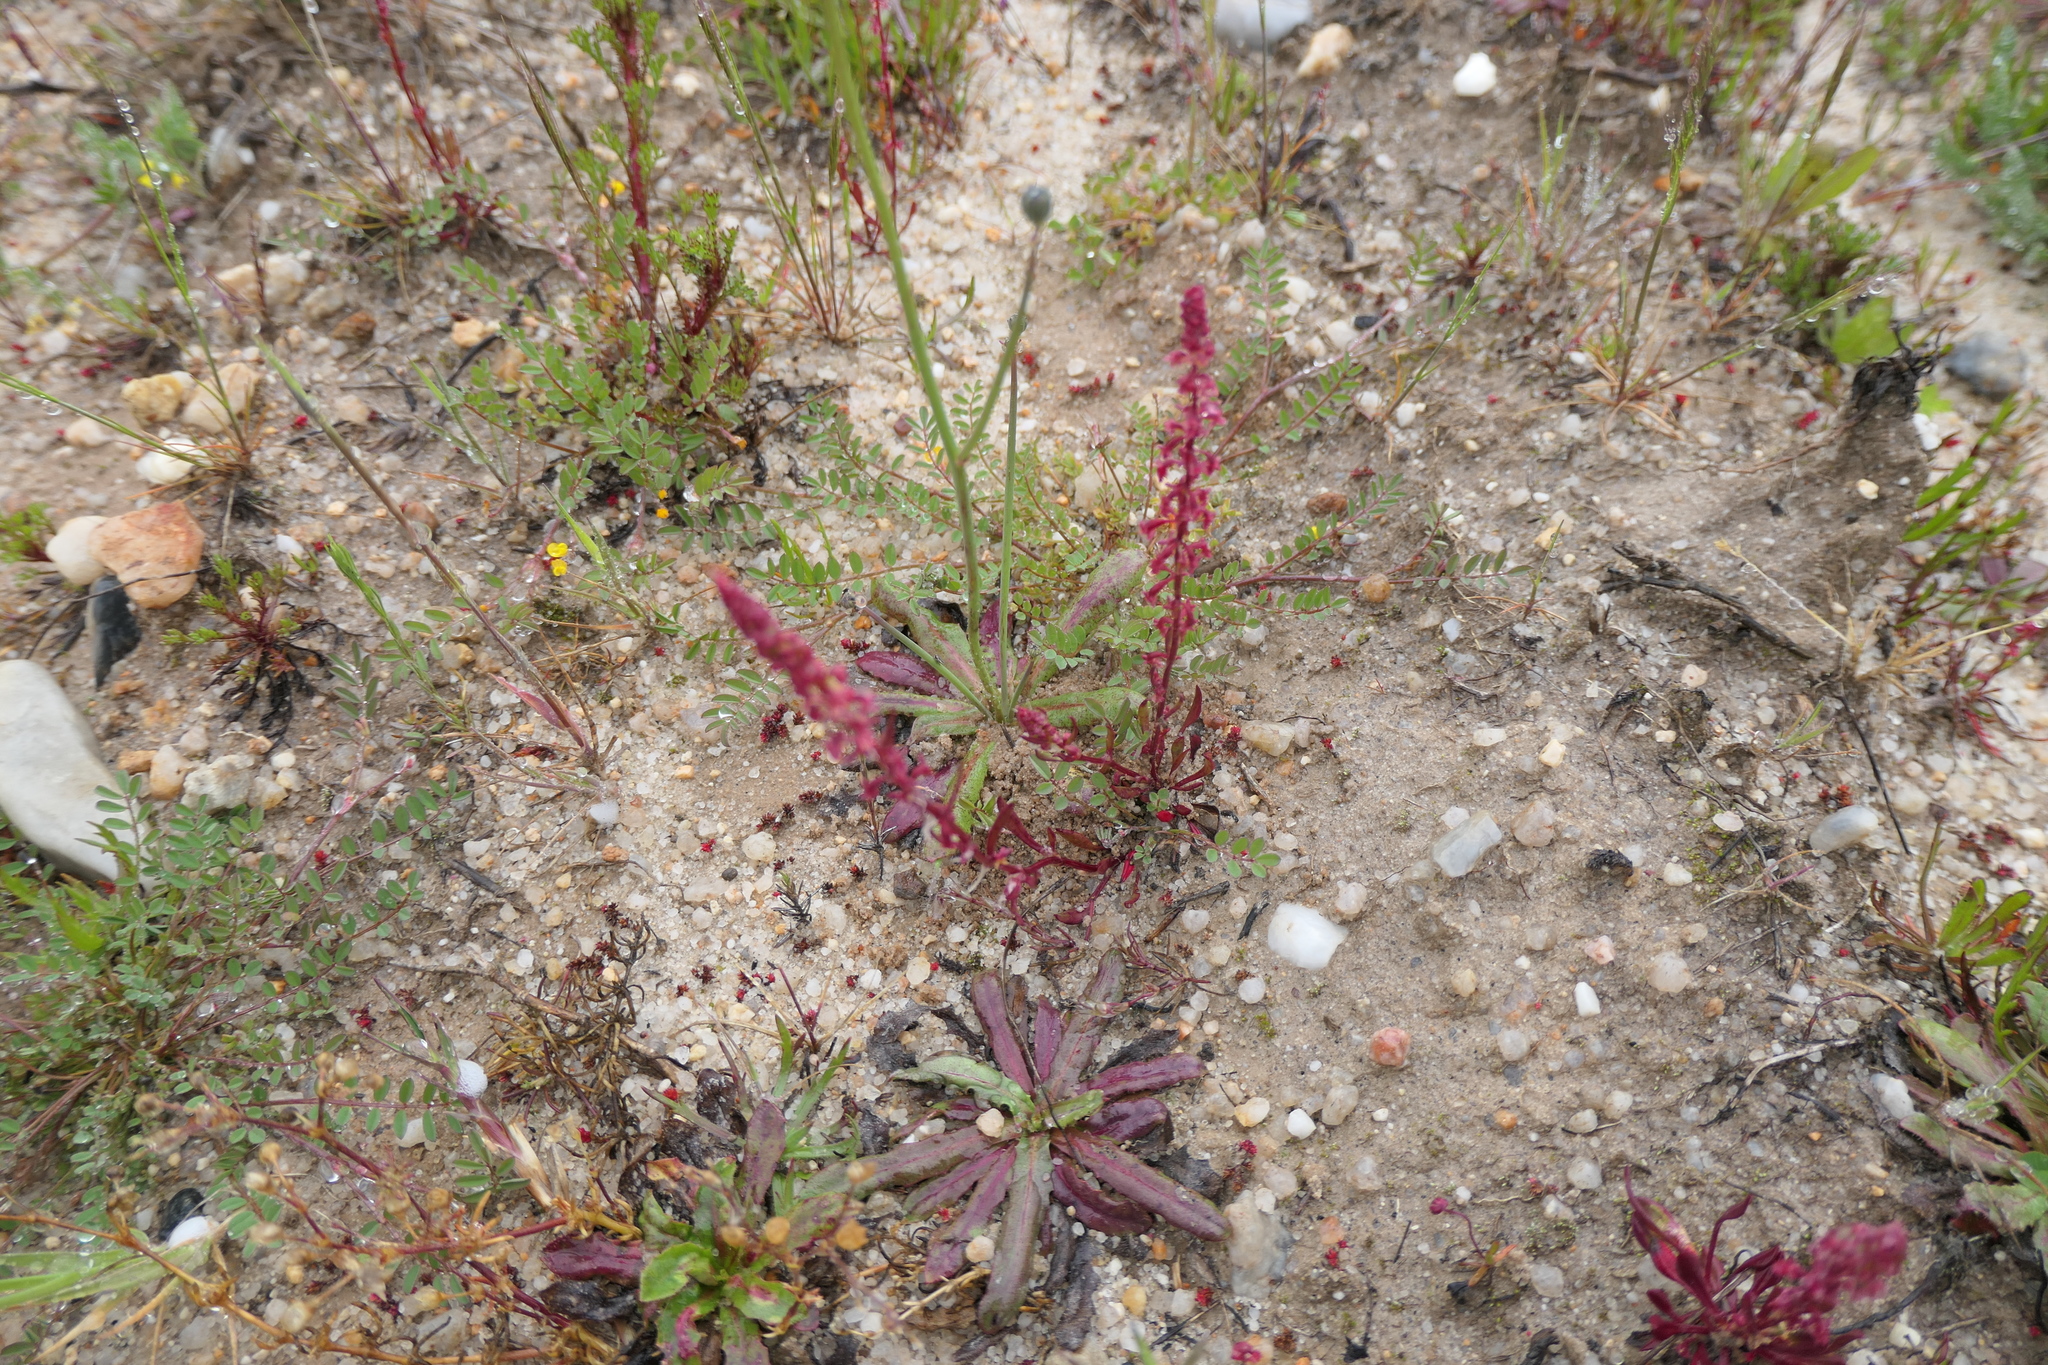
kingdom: Plantae
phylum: Tracheophyta
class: Magnoliopsida
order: Caryophyllales
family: Polygonaceae
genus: Rumex
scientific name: Rumex bucephalophorus
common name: Red dock
